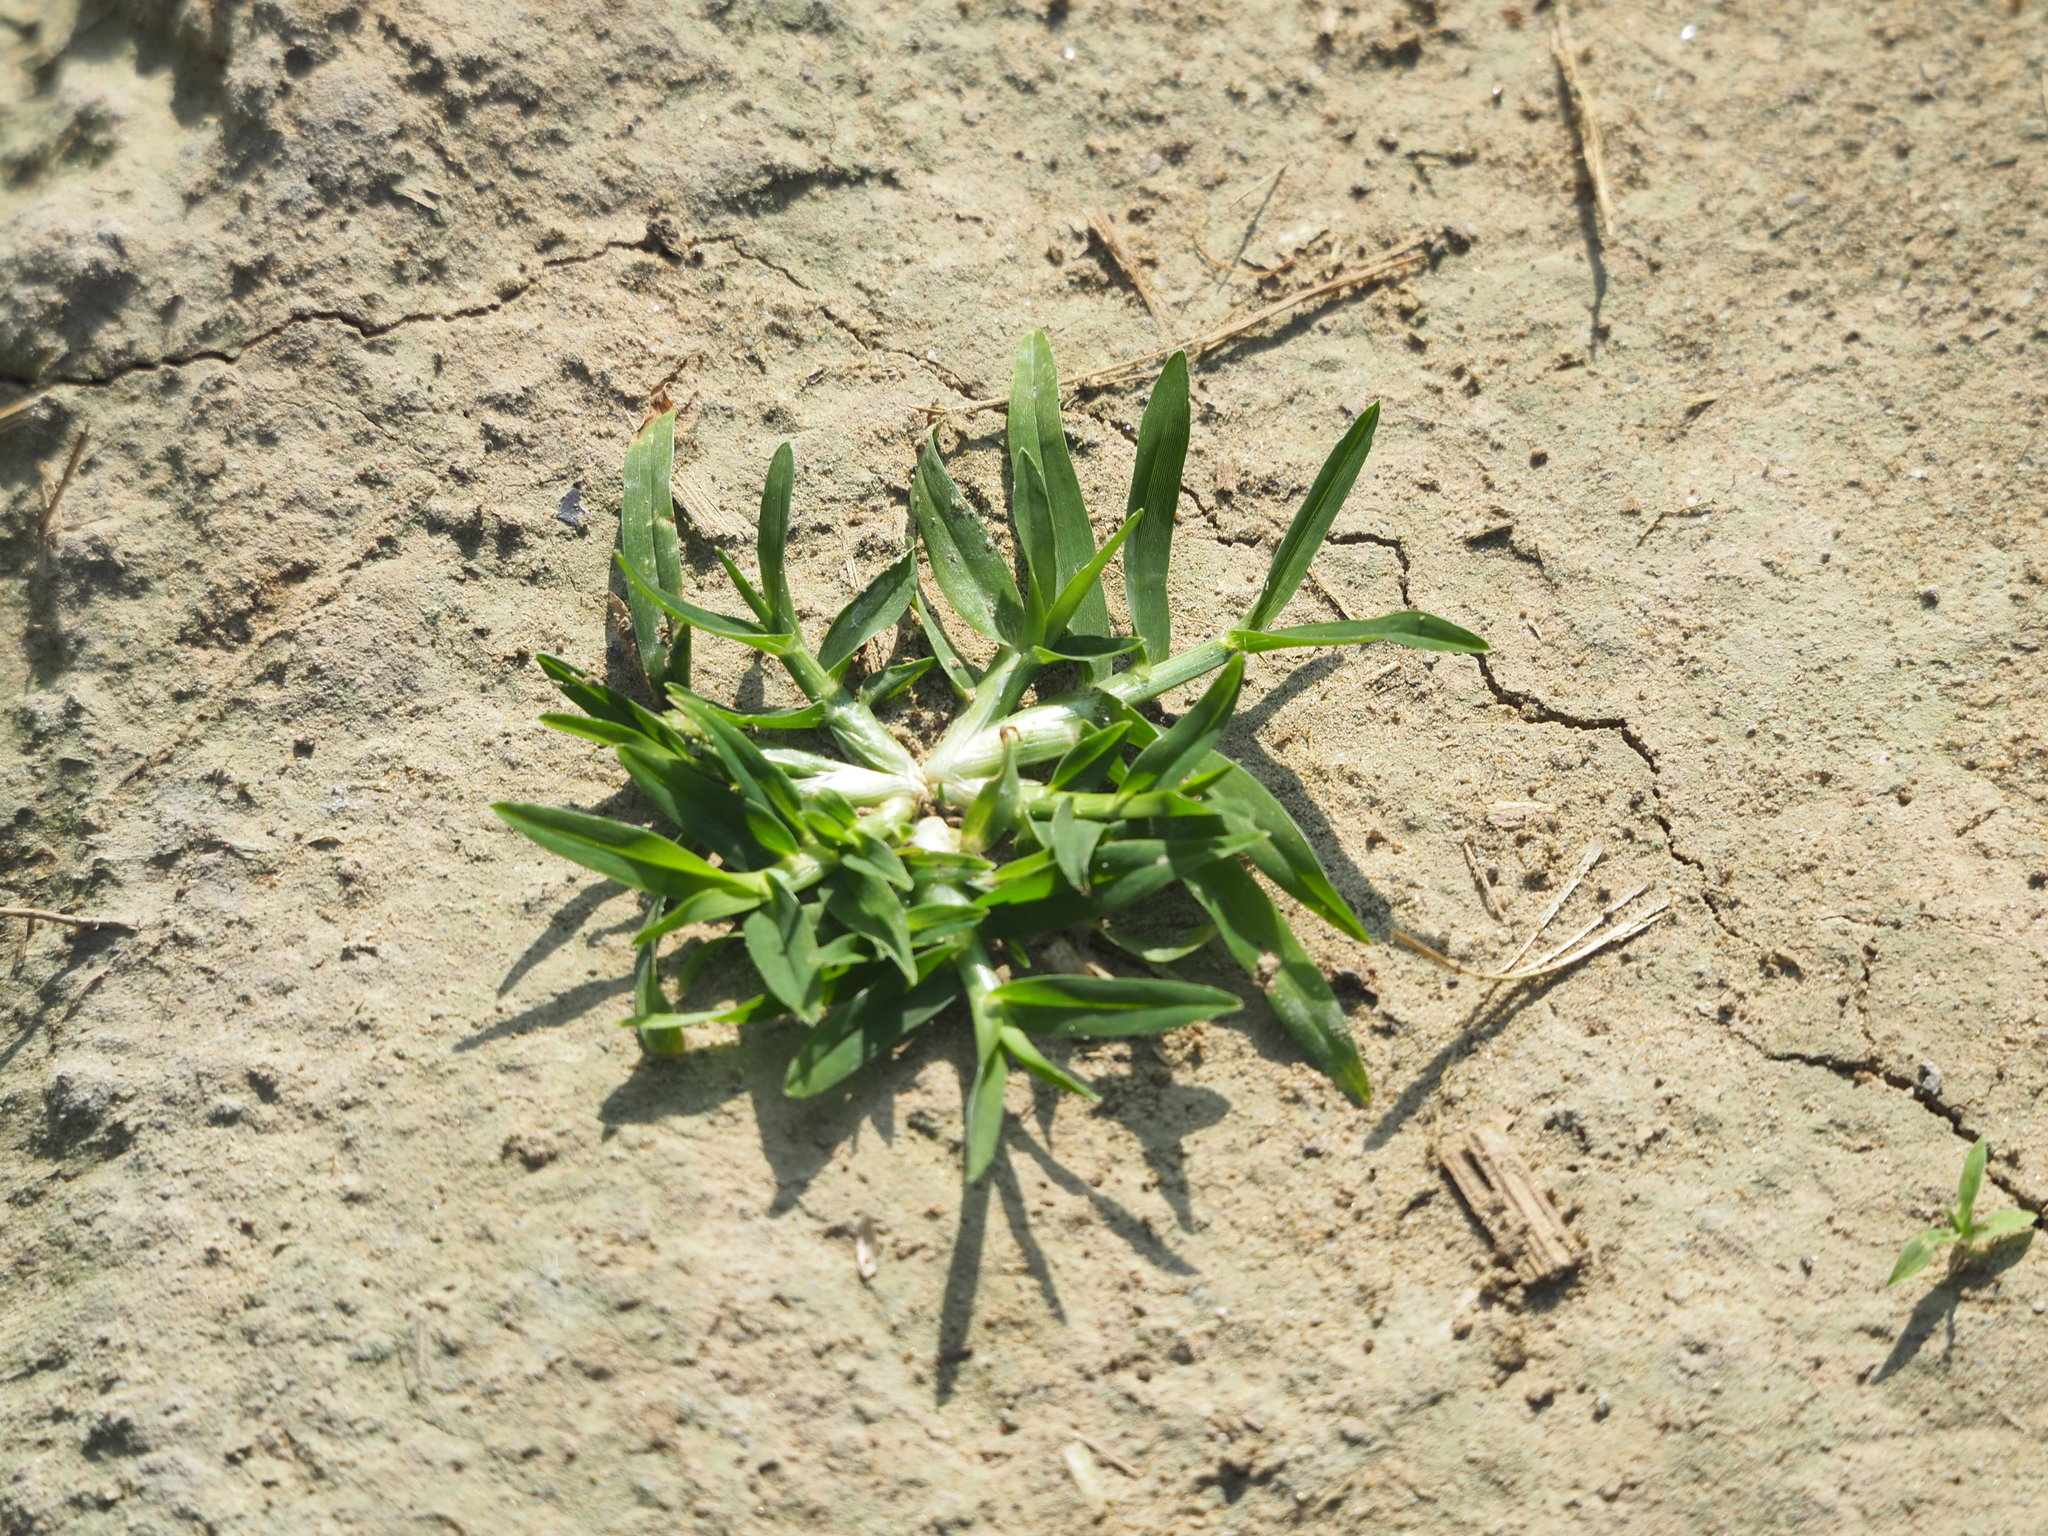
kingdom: Plantae
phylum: Tracheophyta
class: Liliopsida
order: Poales
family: Poaceae
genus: Eleusine
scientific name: Eleusine indica
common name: Yard-grass
